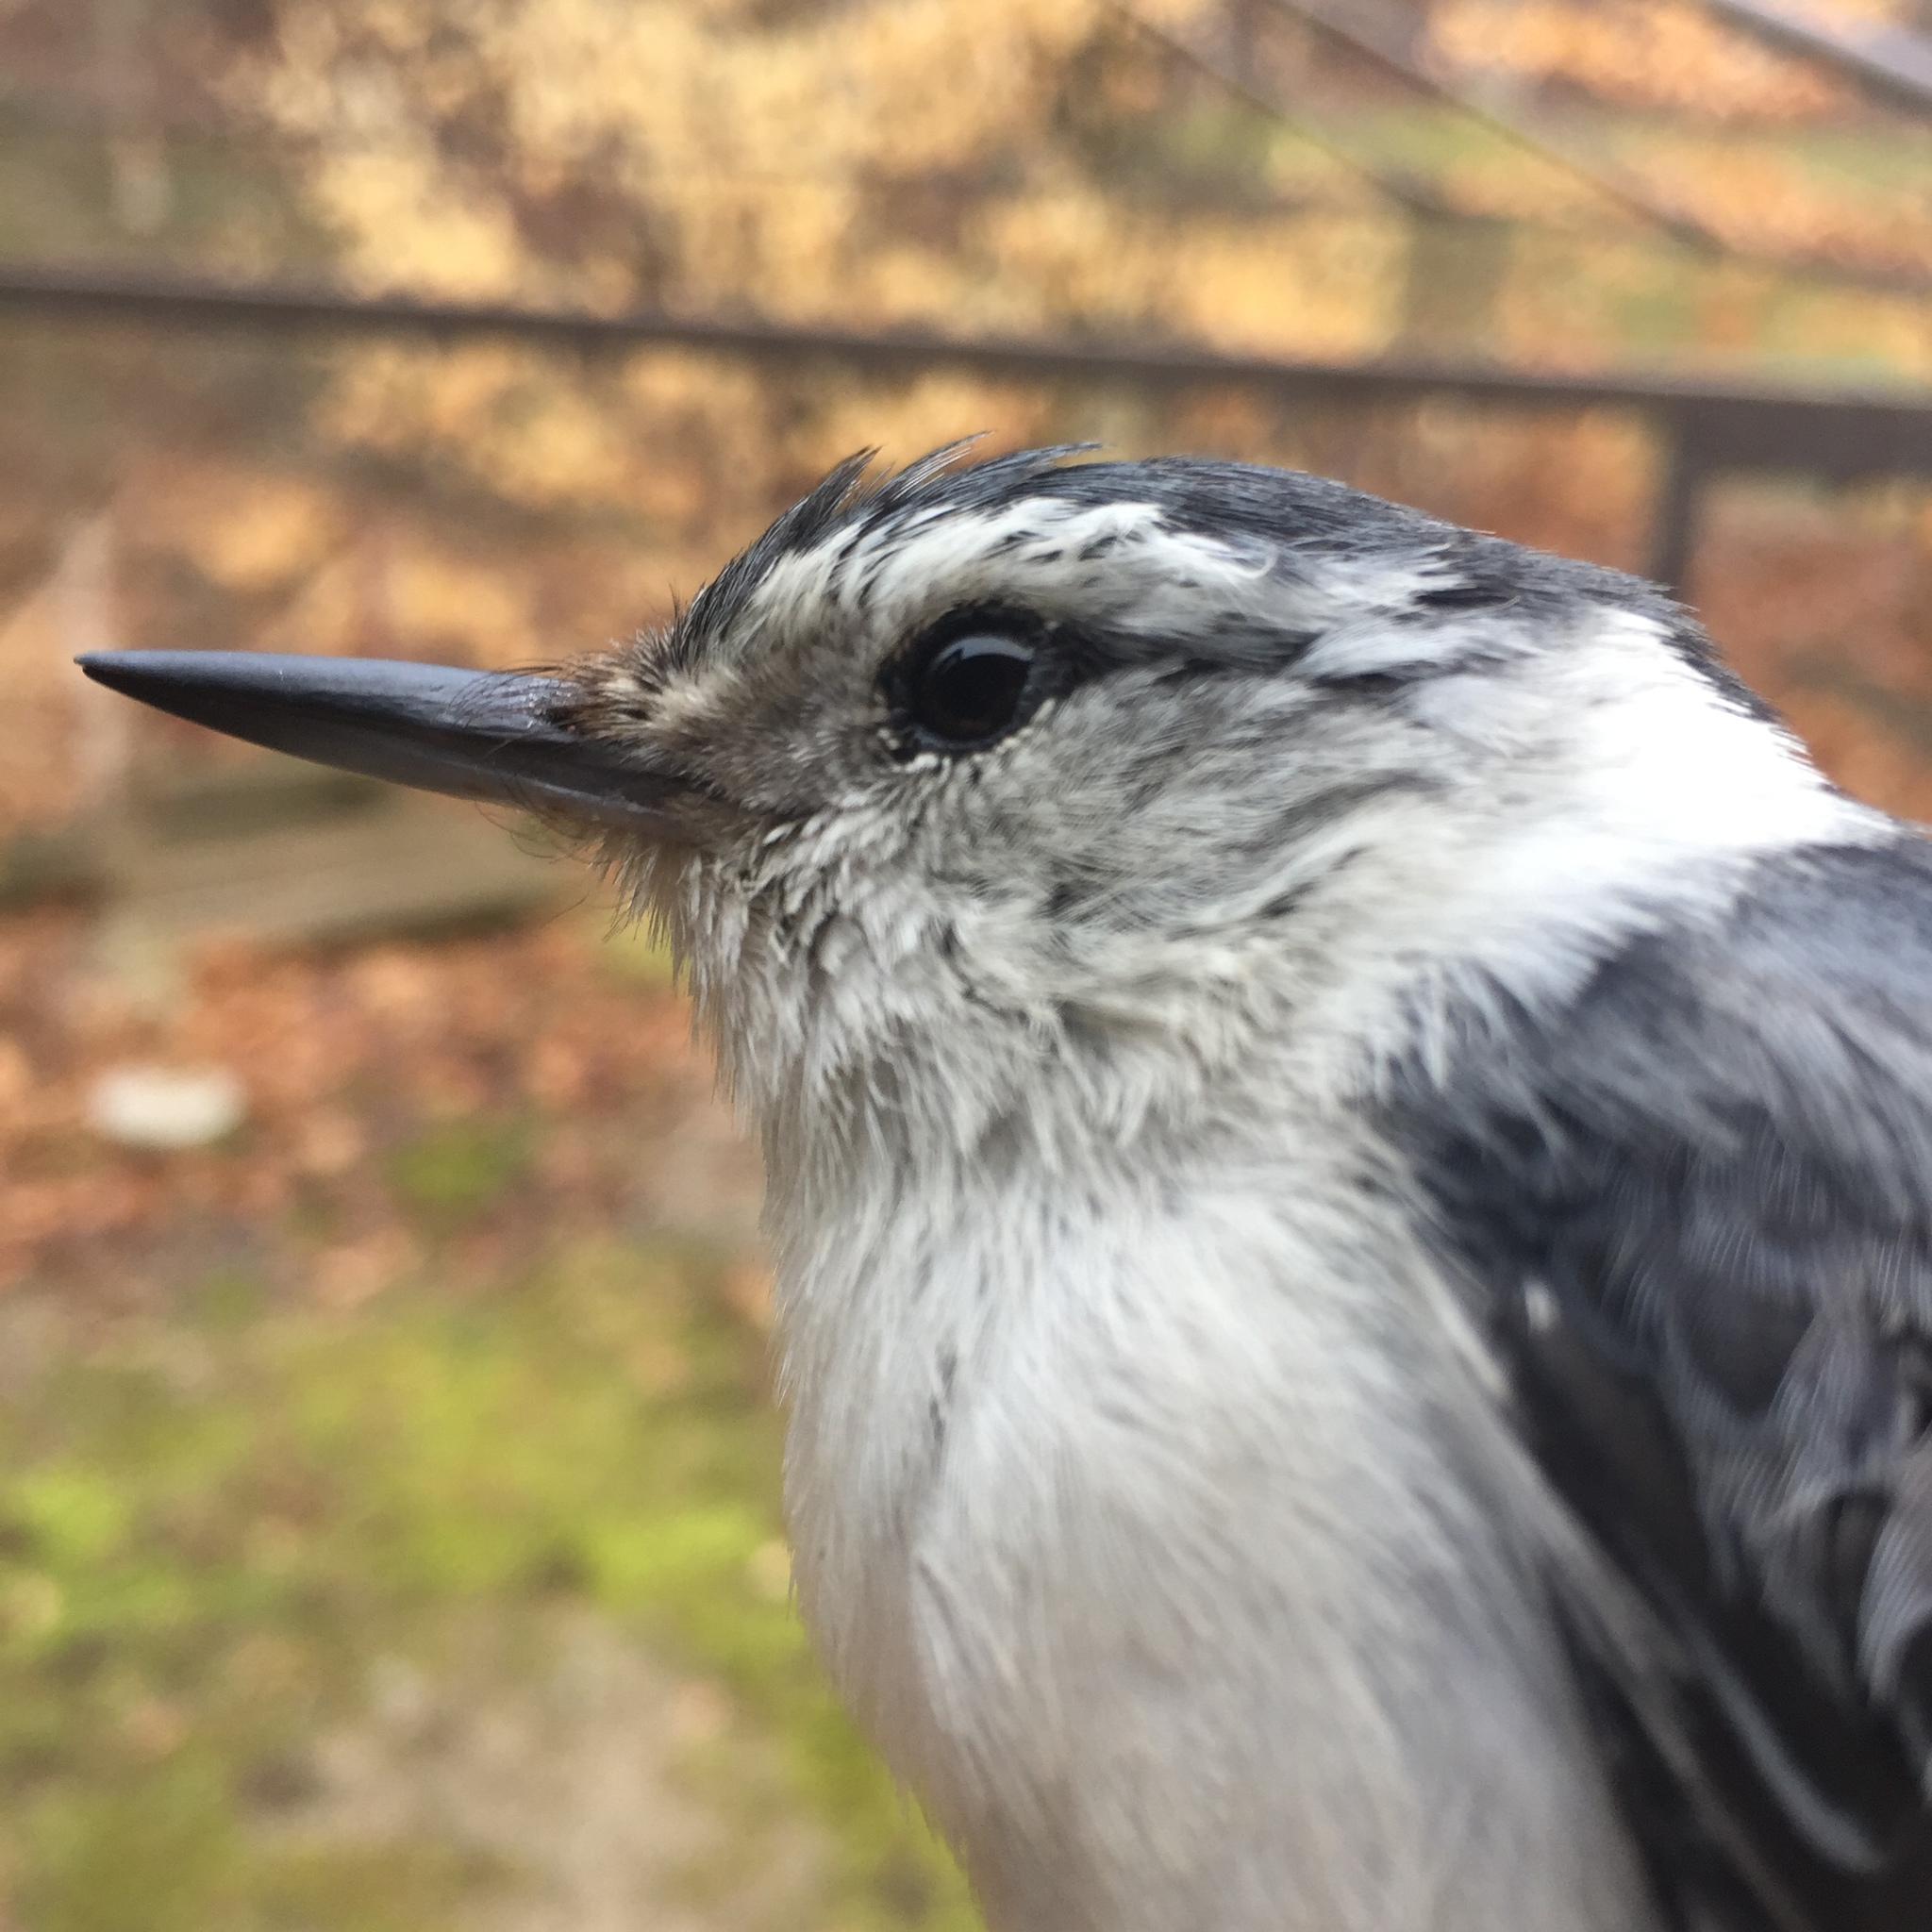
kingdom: Animalia
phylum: Chordata
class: Aves
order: Passeriformes
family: Sittidae
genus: Sitta
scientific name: Sitta carolinensis
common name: White-breasted nuthatch
